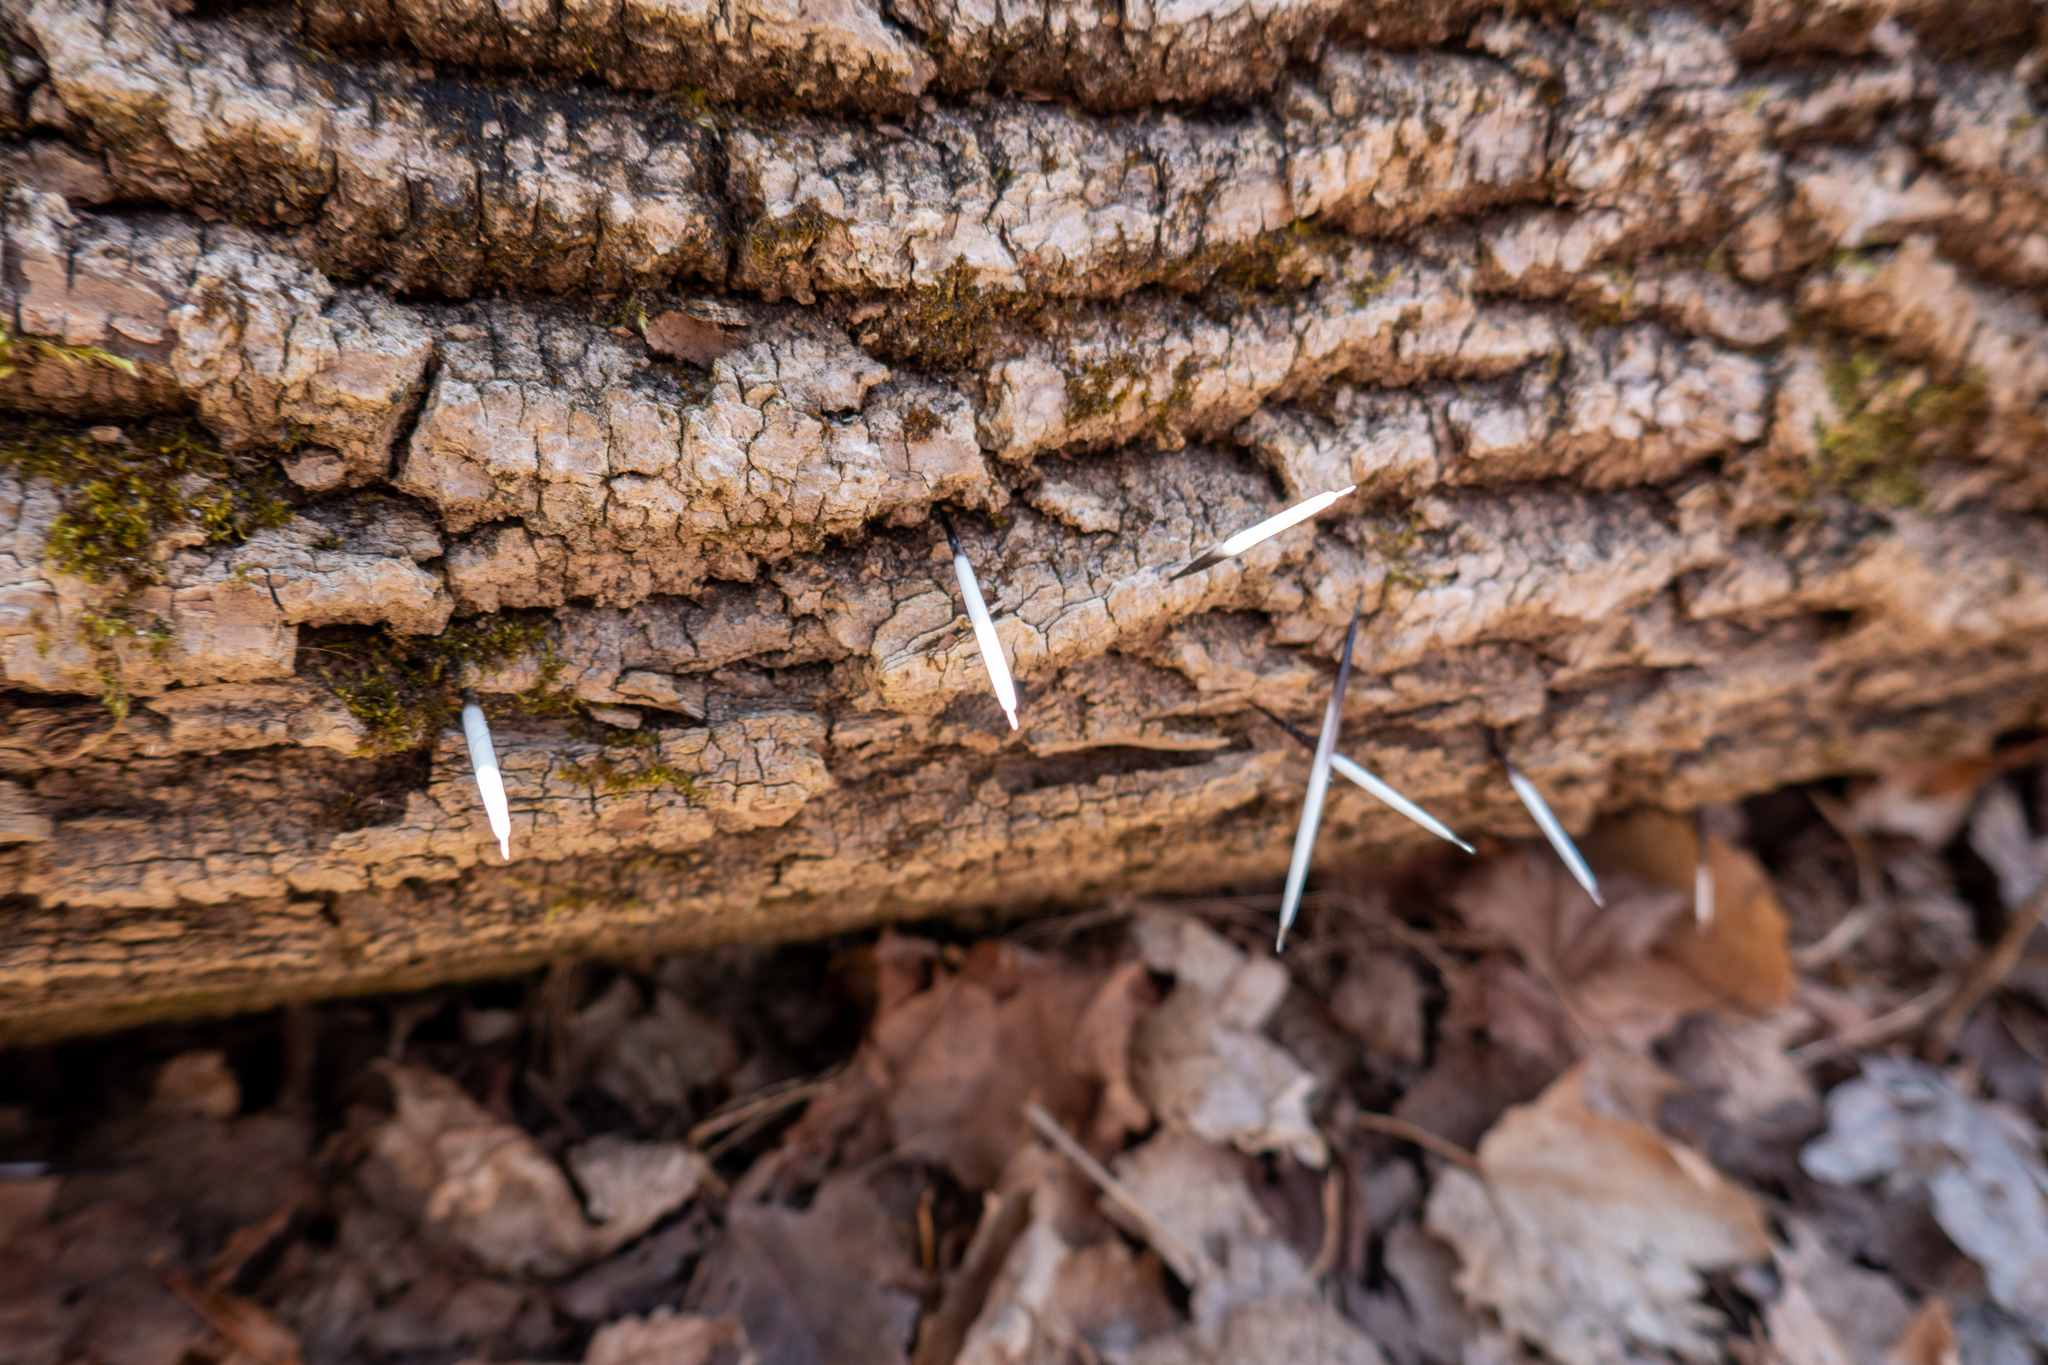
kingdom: Animalia
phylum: Chordata
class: Mammalia
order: Rodentia
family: Erethizontidae
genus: Erethizon
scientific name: Erethizon dorsatus
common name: North american porcupine
